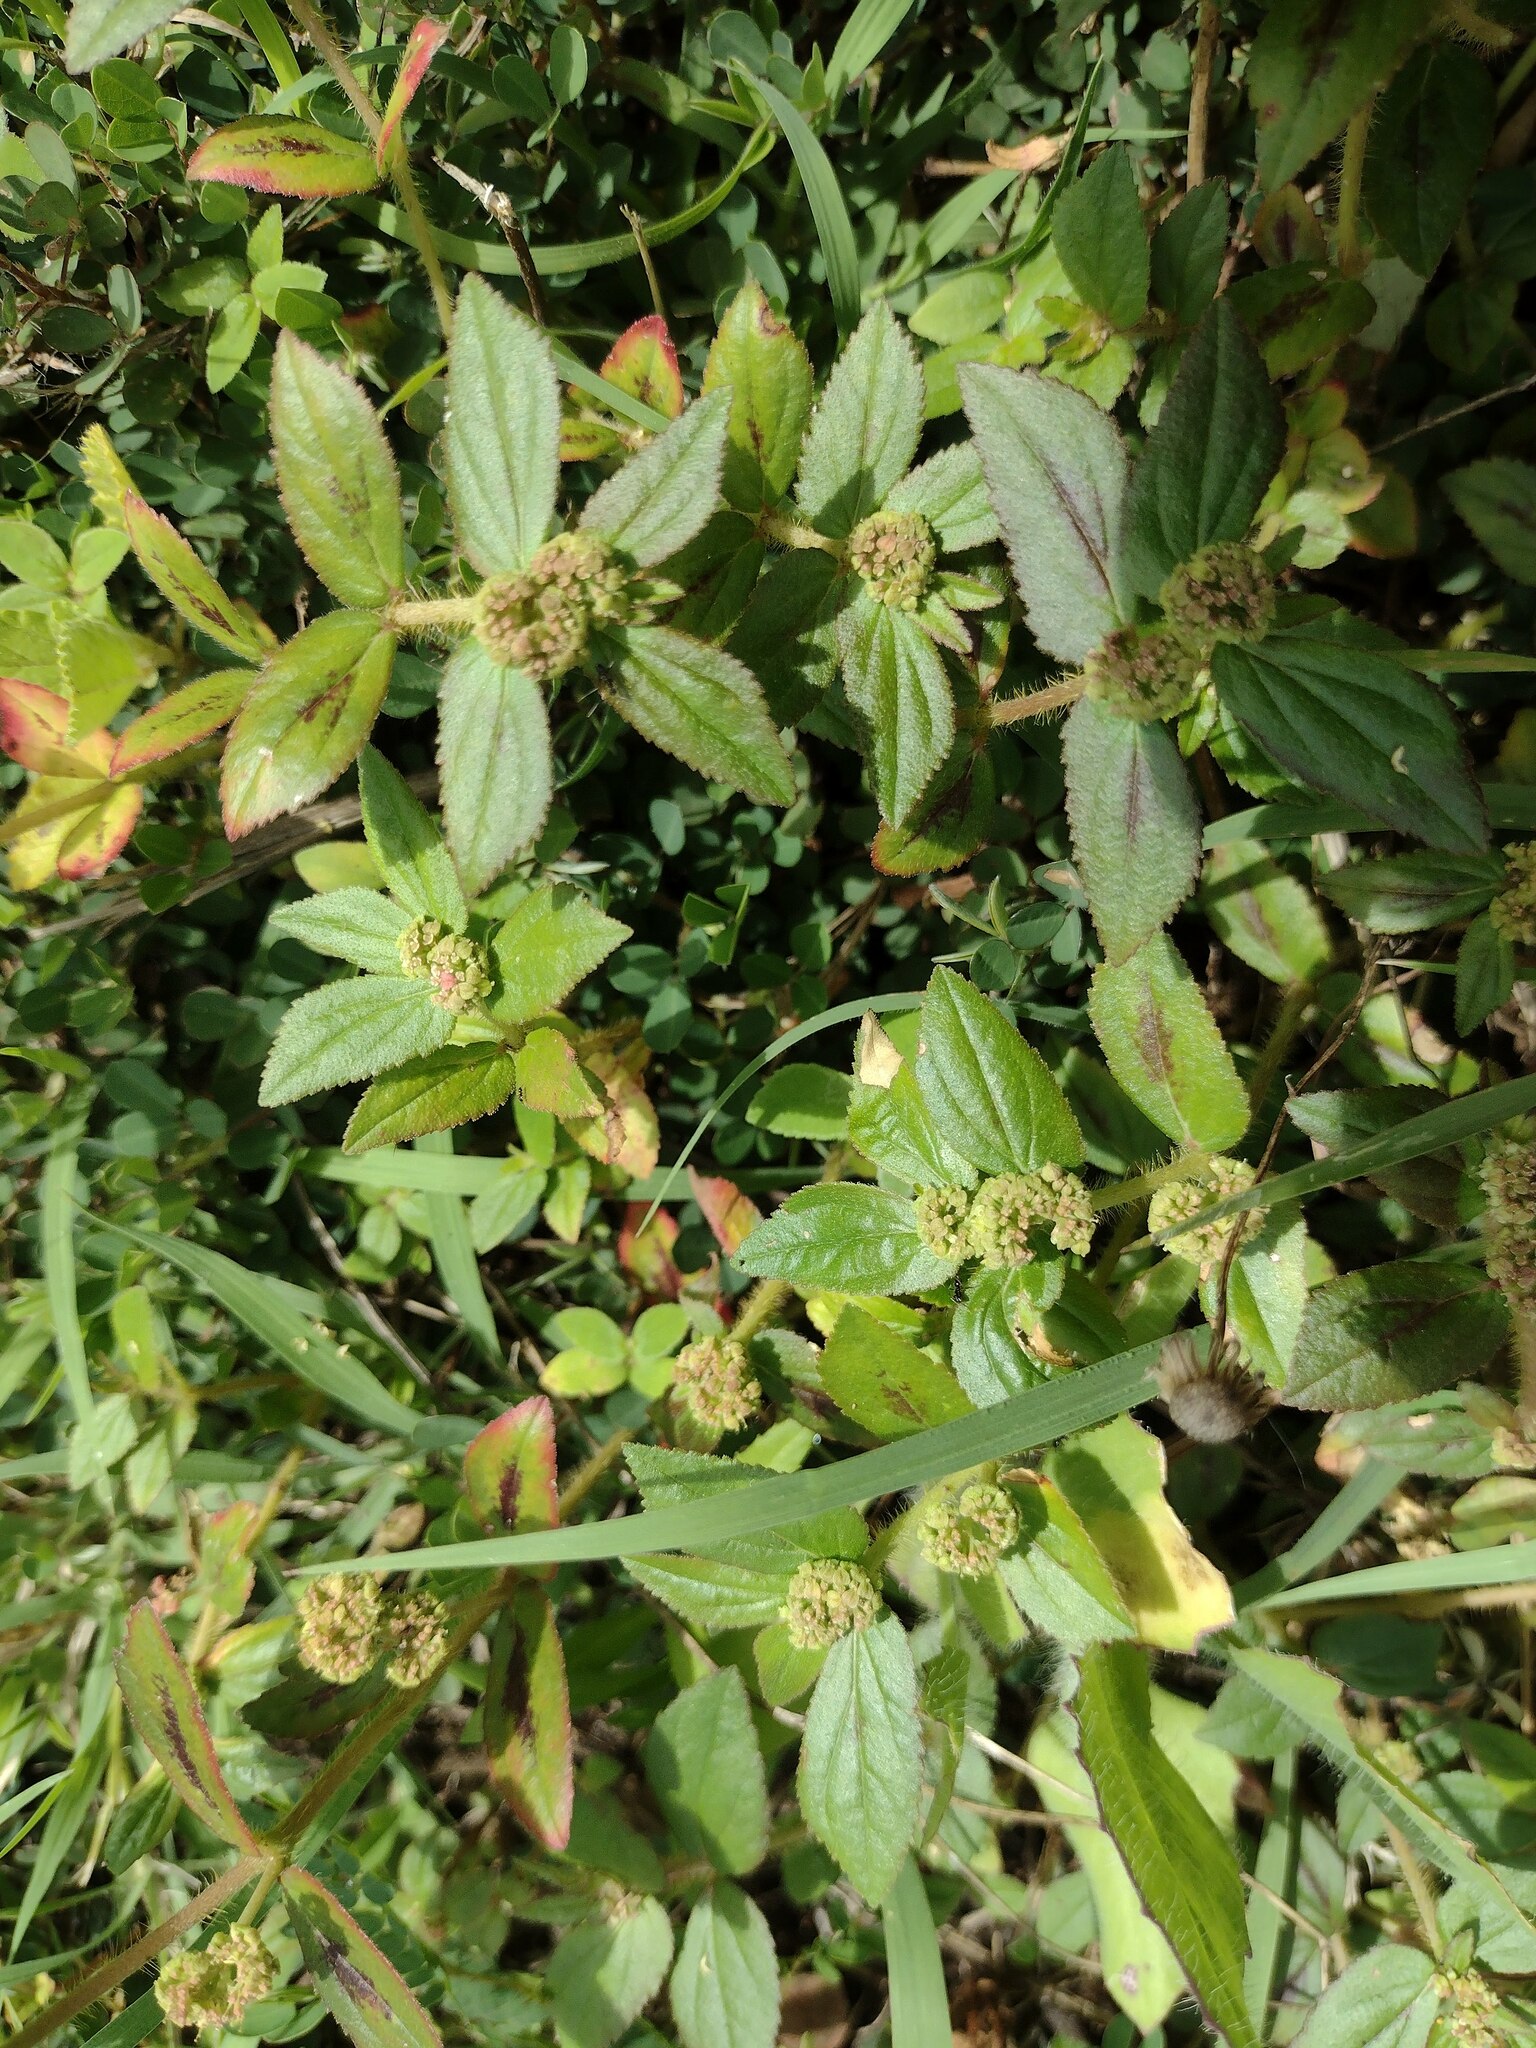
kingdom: Plantae
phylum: Tracheophyta
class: Magnoliopsida
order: Malpighiales
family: Euphorbiaceae
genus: Euphorbia
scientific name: Euphorbia hirta
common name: Pillpod sandmat
